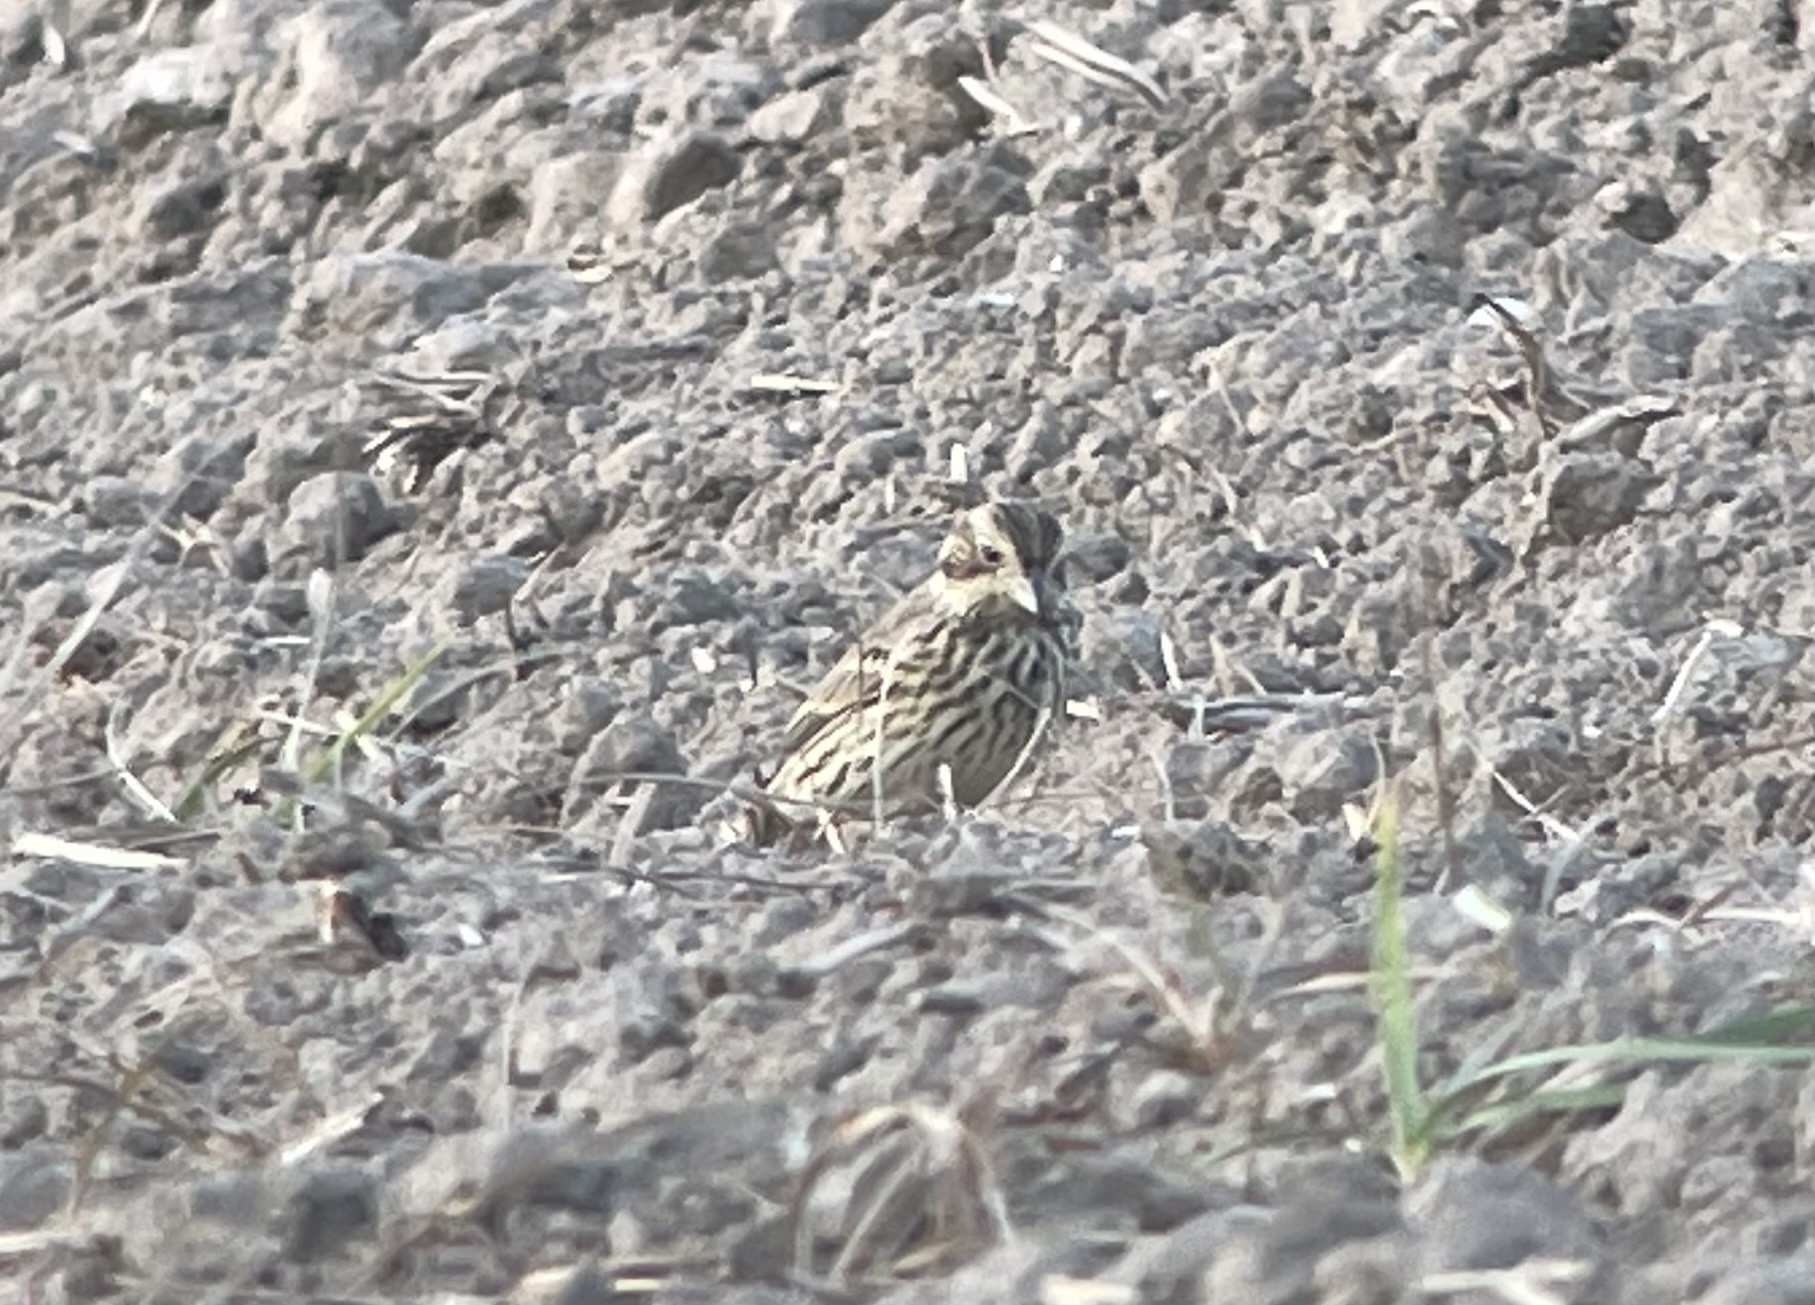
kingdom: Animalia
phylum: Chordata
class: Aves
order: Passeriformes
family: Emberizidae
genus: Emberiza
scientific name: Emberiza calandra
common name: Corn bunting
